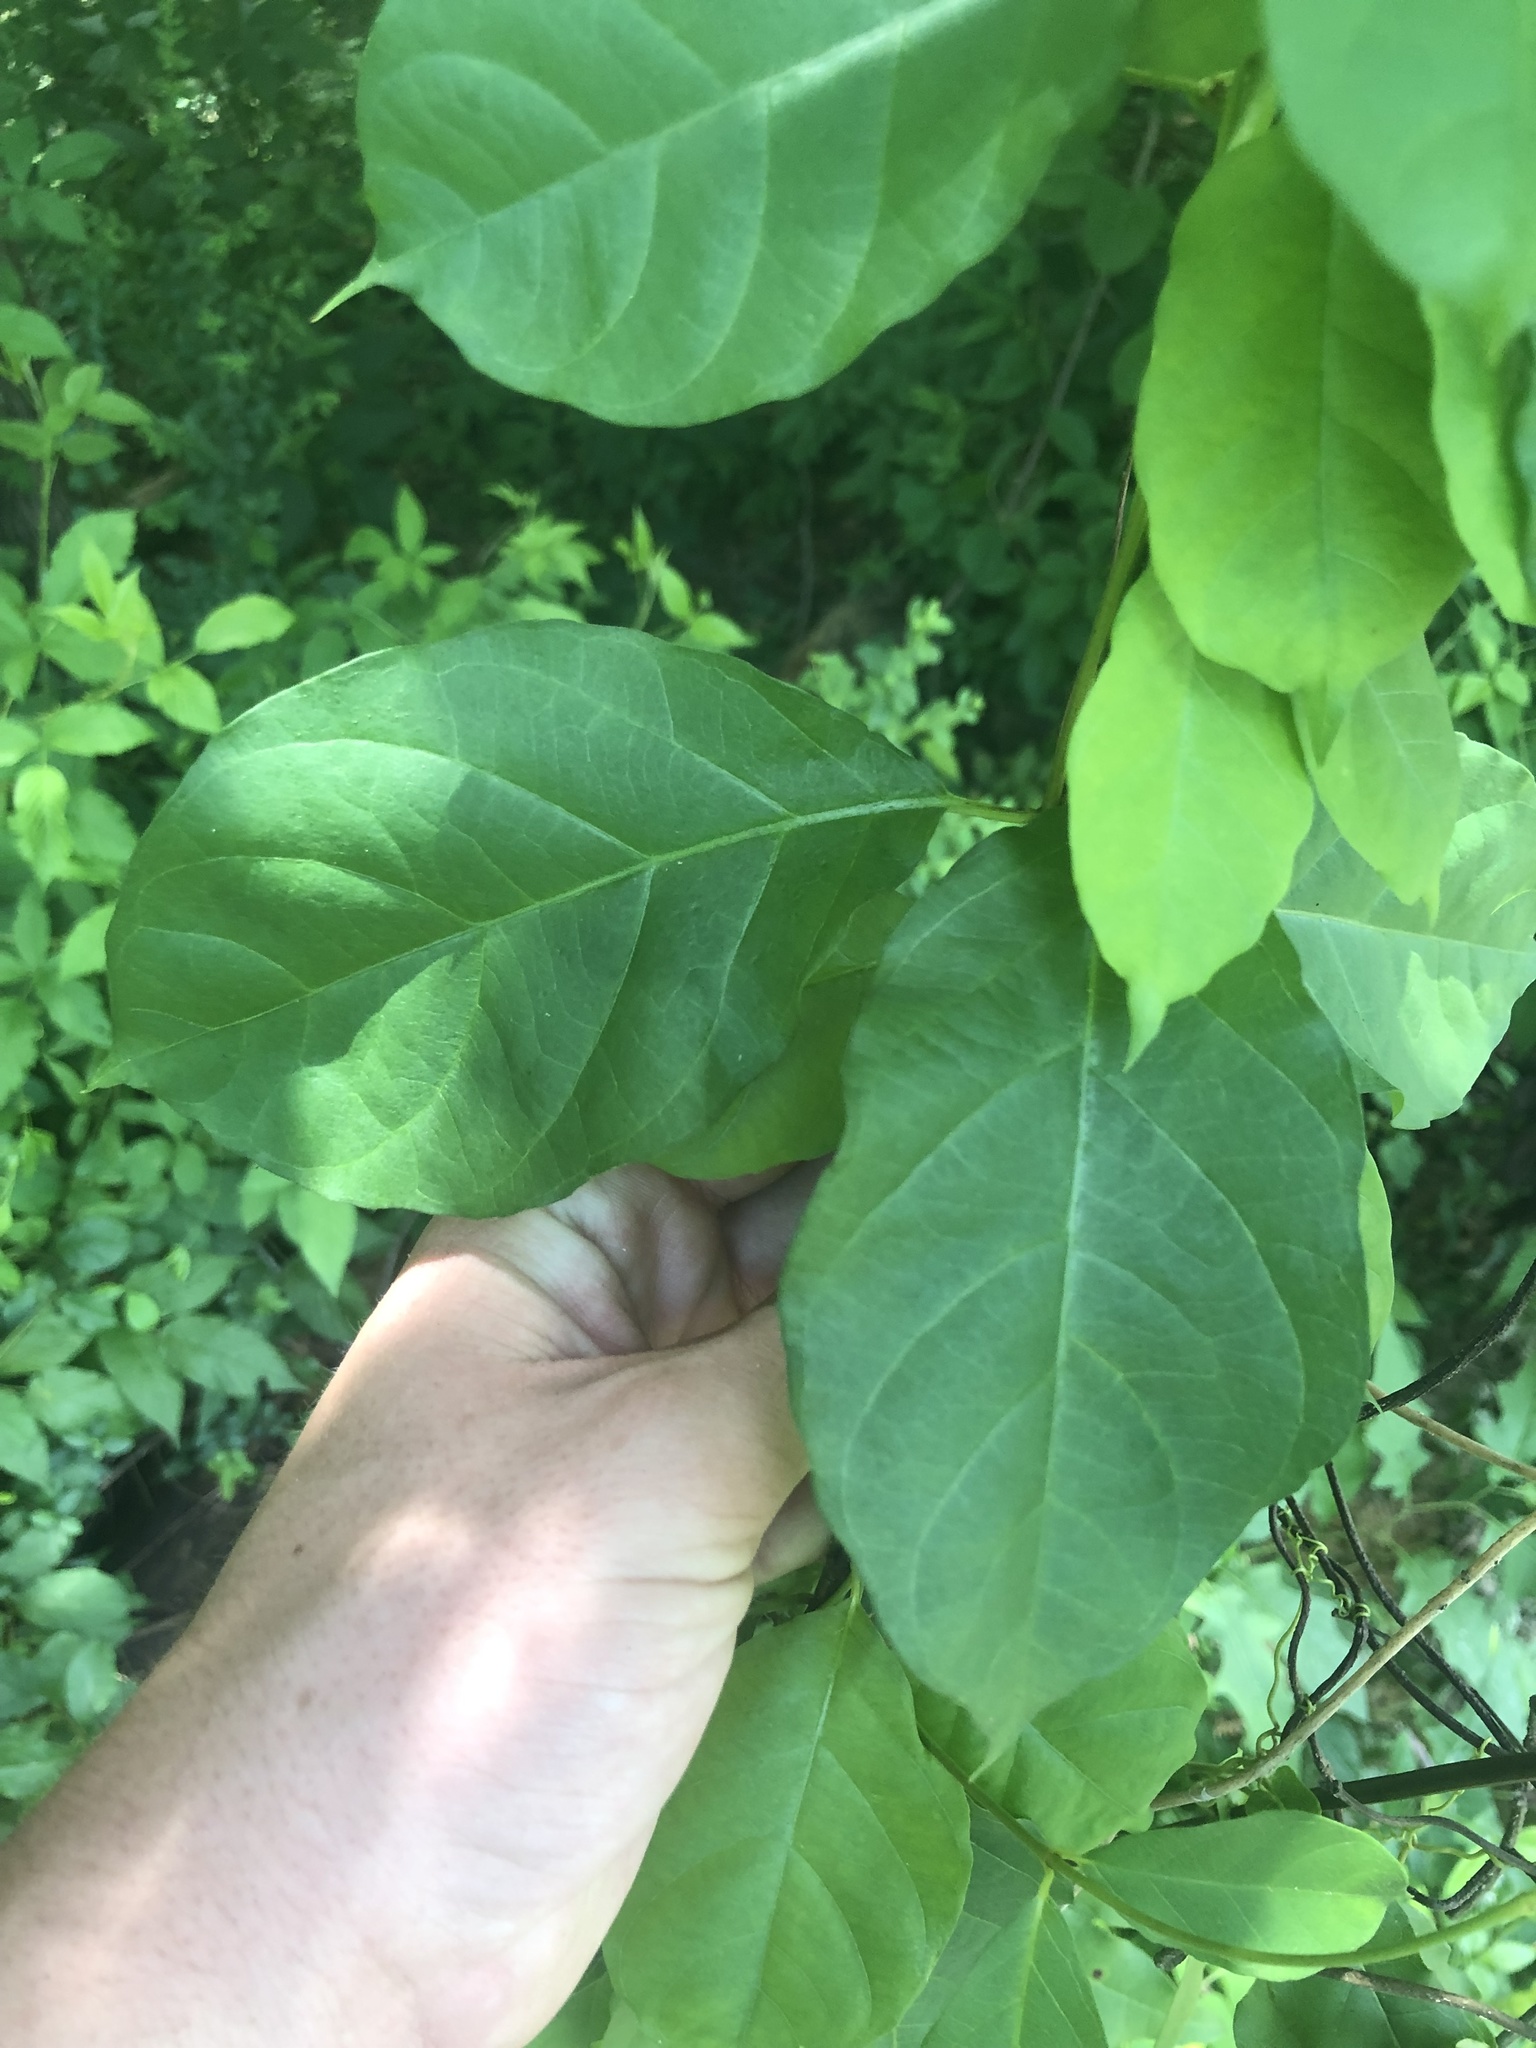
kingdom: Plantae
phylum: Tracheophyta
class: Magnoliopsida
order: Gentianales
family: Apocynaceae
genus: Thyrsanthella
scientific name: Thyrsanthella difformis
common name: Climbing dogbane
